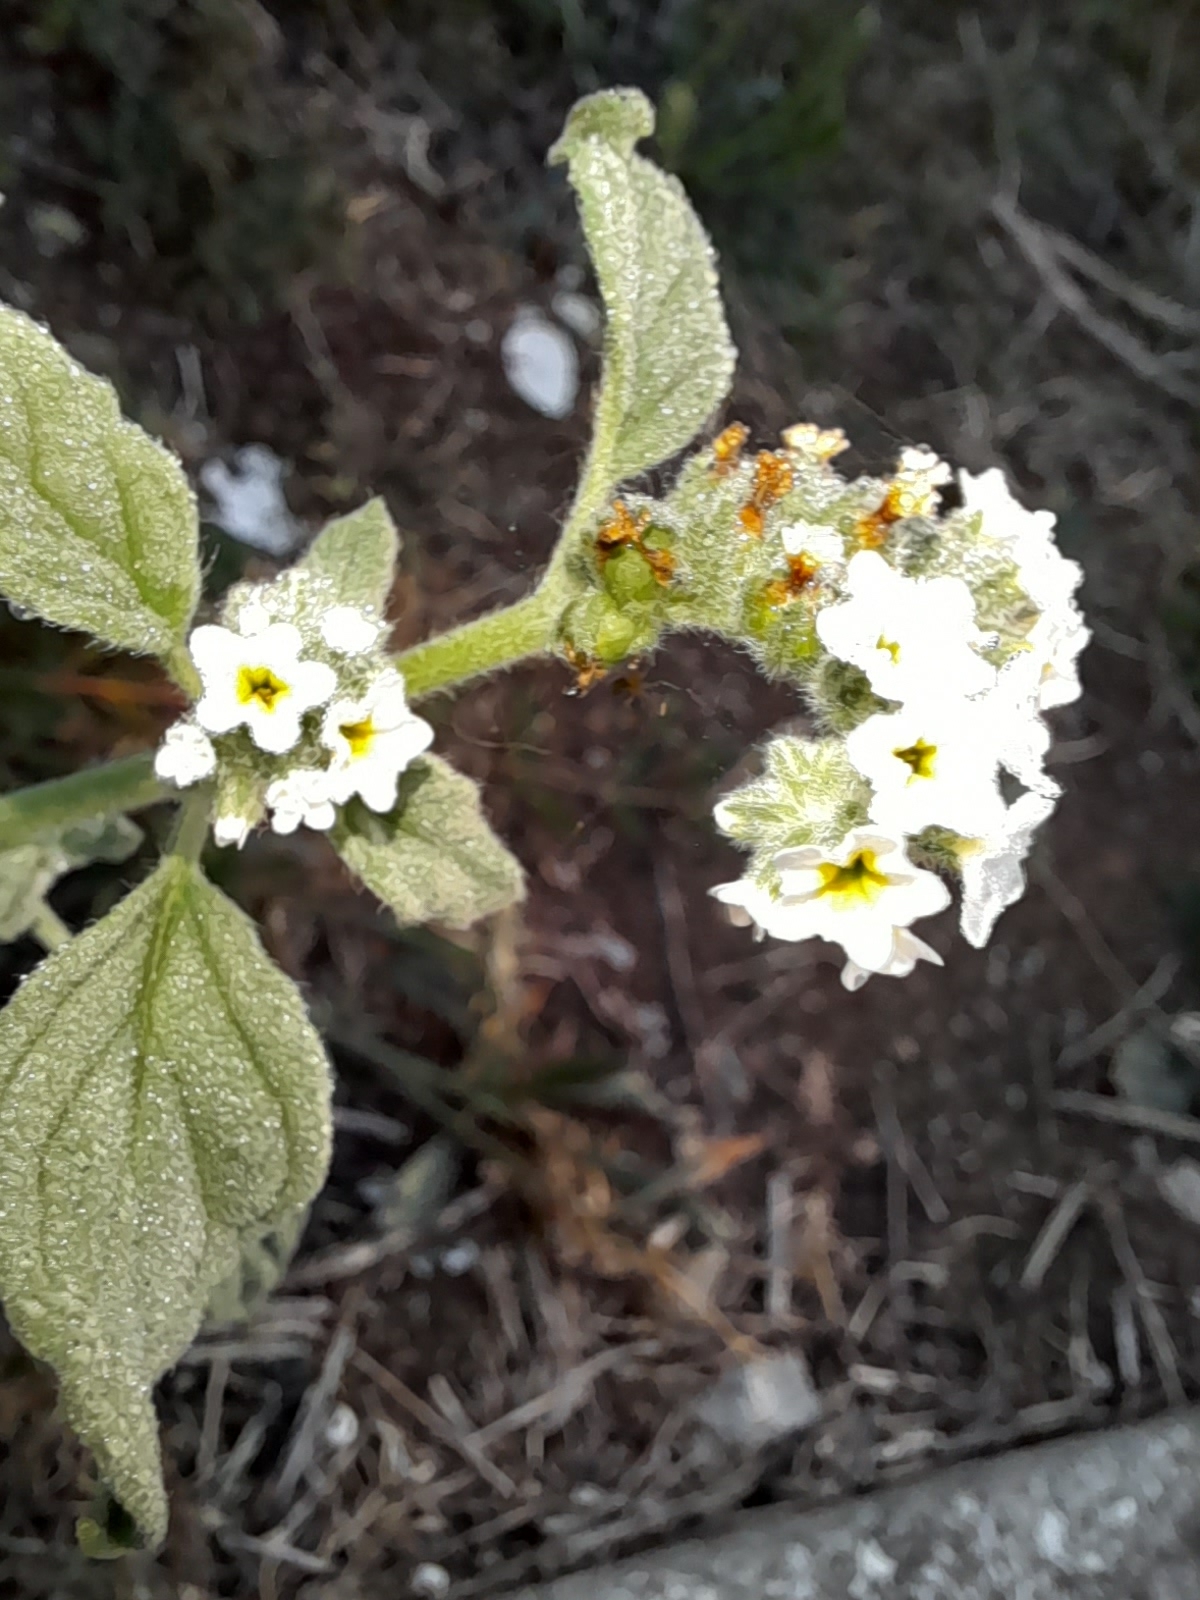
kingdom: Plantae
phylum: Tracheophyta
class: Magnoliopsida
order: Boraginales
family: Heliotropiaceae
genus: Heliotropium
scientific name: Heliotropium europaeum
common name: European heliotrope
